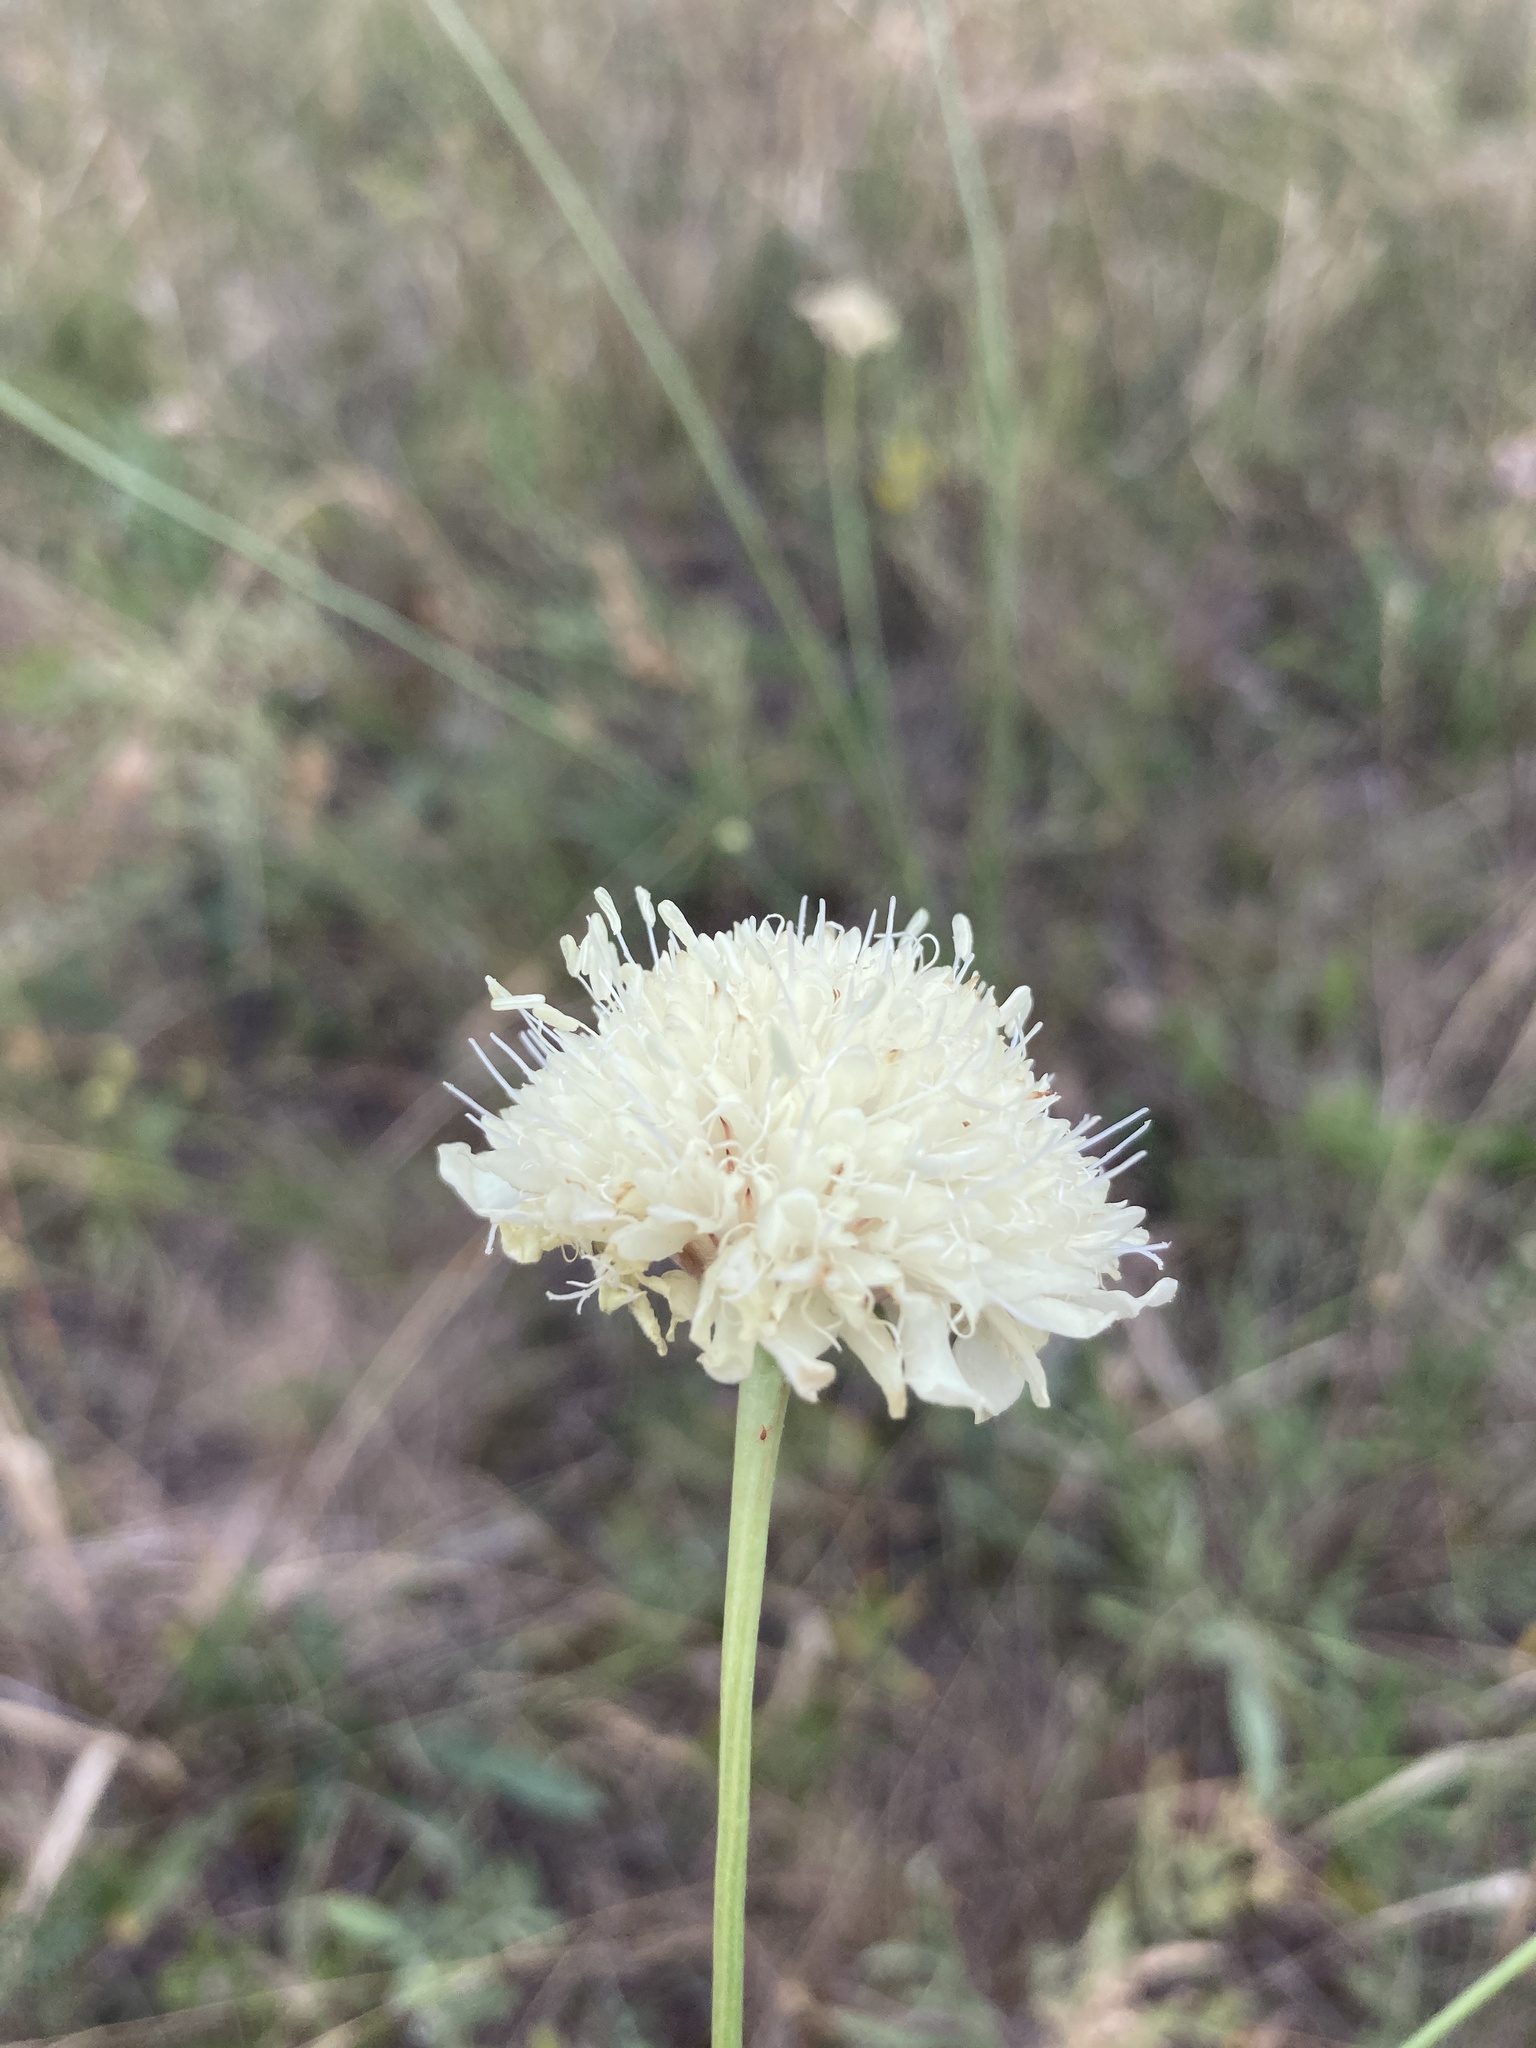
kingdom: Plantae
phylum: Tracheophyta
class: Magnoliopsida
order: Dipsacales
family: Caprifoliaceae
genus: Cephalaria
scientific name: Cephalaria uralensis
